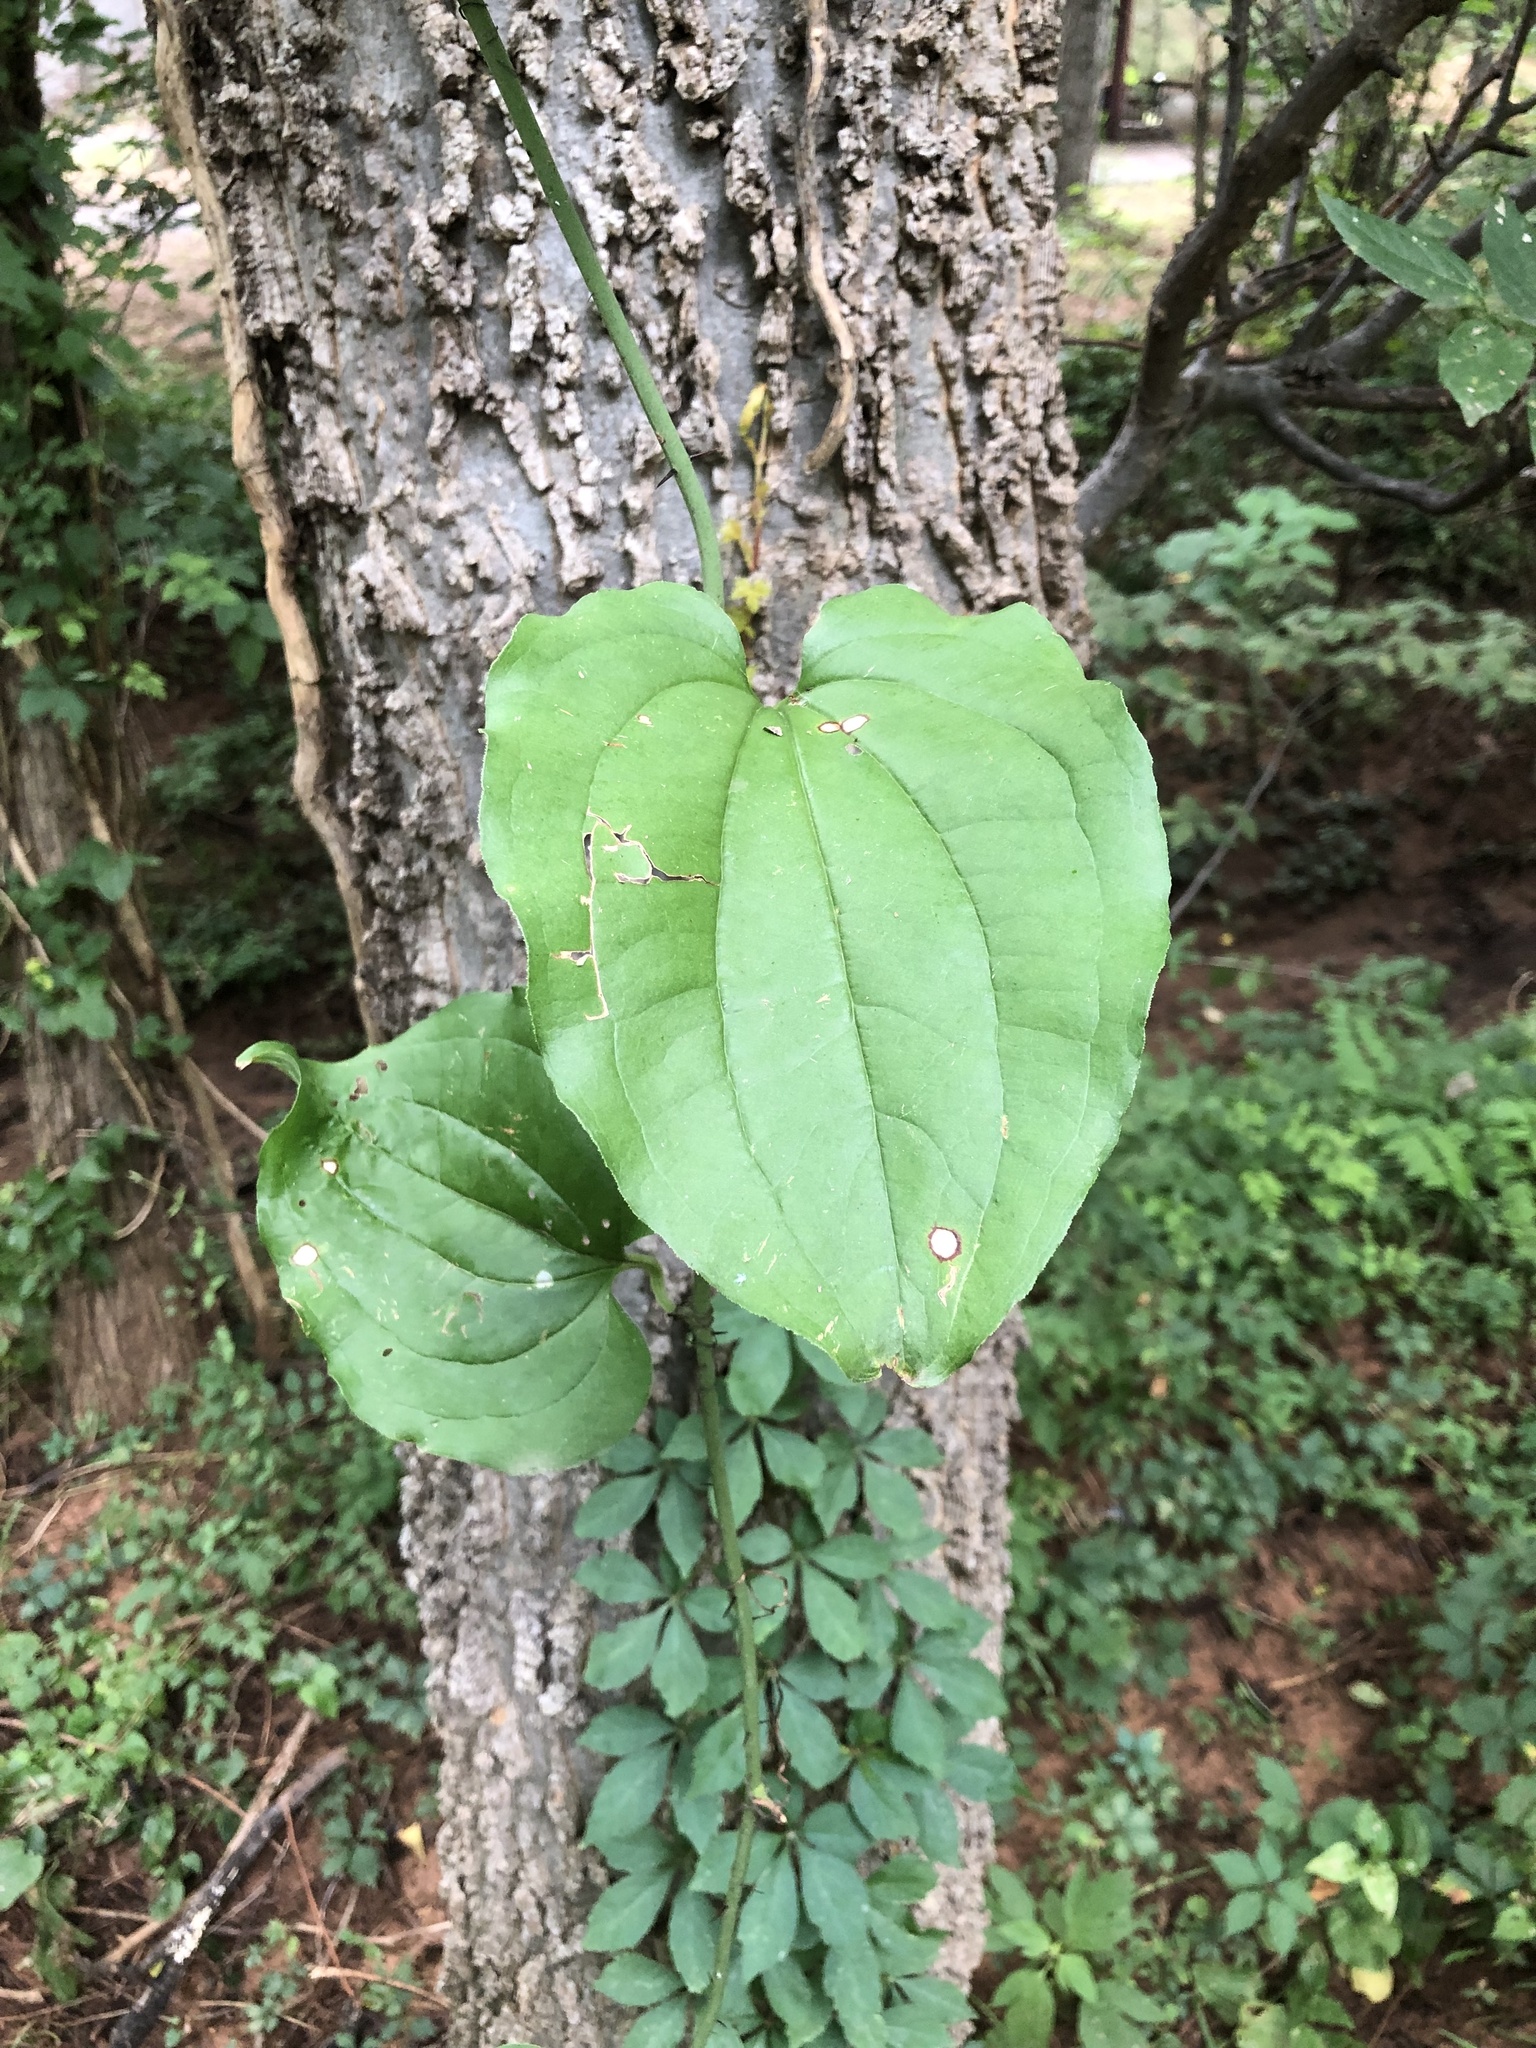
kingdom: Plantae
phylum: Tracheophyta
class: Liliopsida
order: Liliales
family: Smilacaceae
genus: Smilax
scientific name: Smilax tamnoides
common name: Hellfetter
